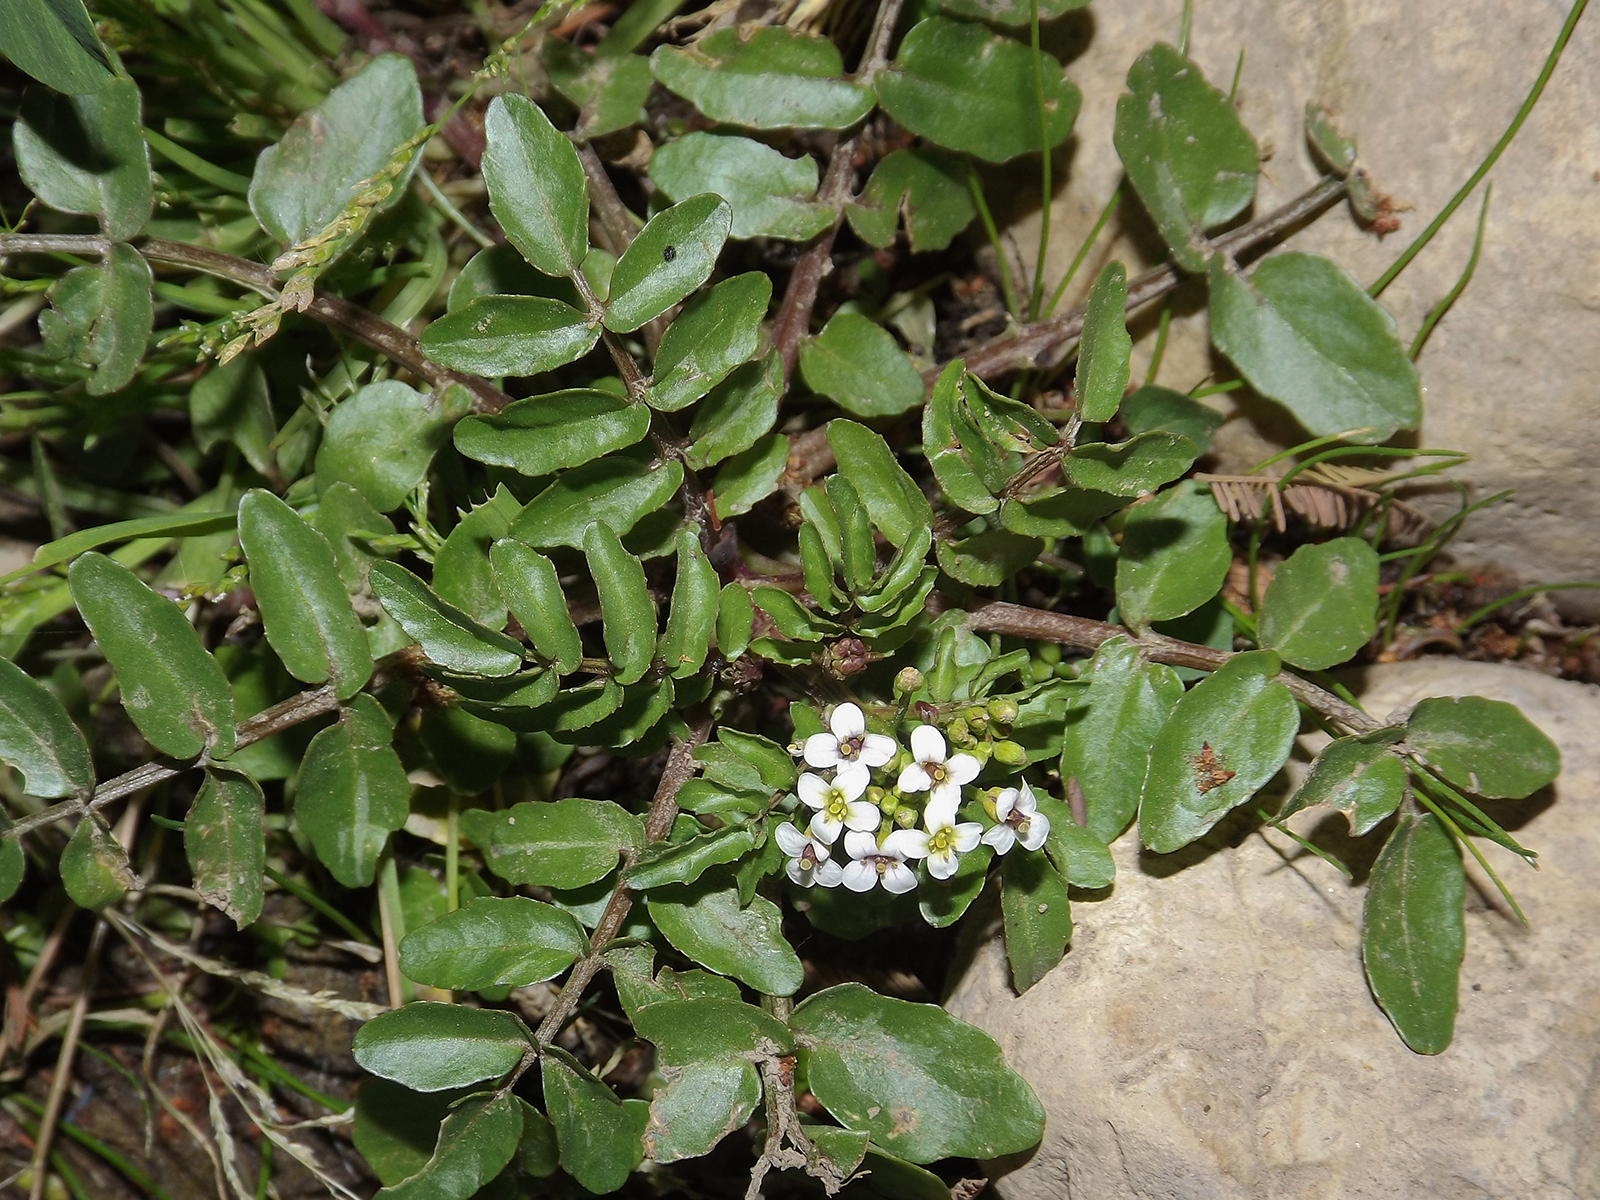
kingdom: Plantae
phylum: Tracheophyta
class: Magnoliopsida
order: Brassicales
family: Brassicaceae
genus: Nasturtium
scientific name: Nasturtium officinale
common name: Watercress
